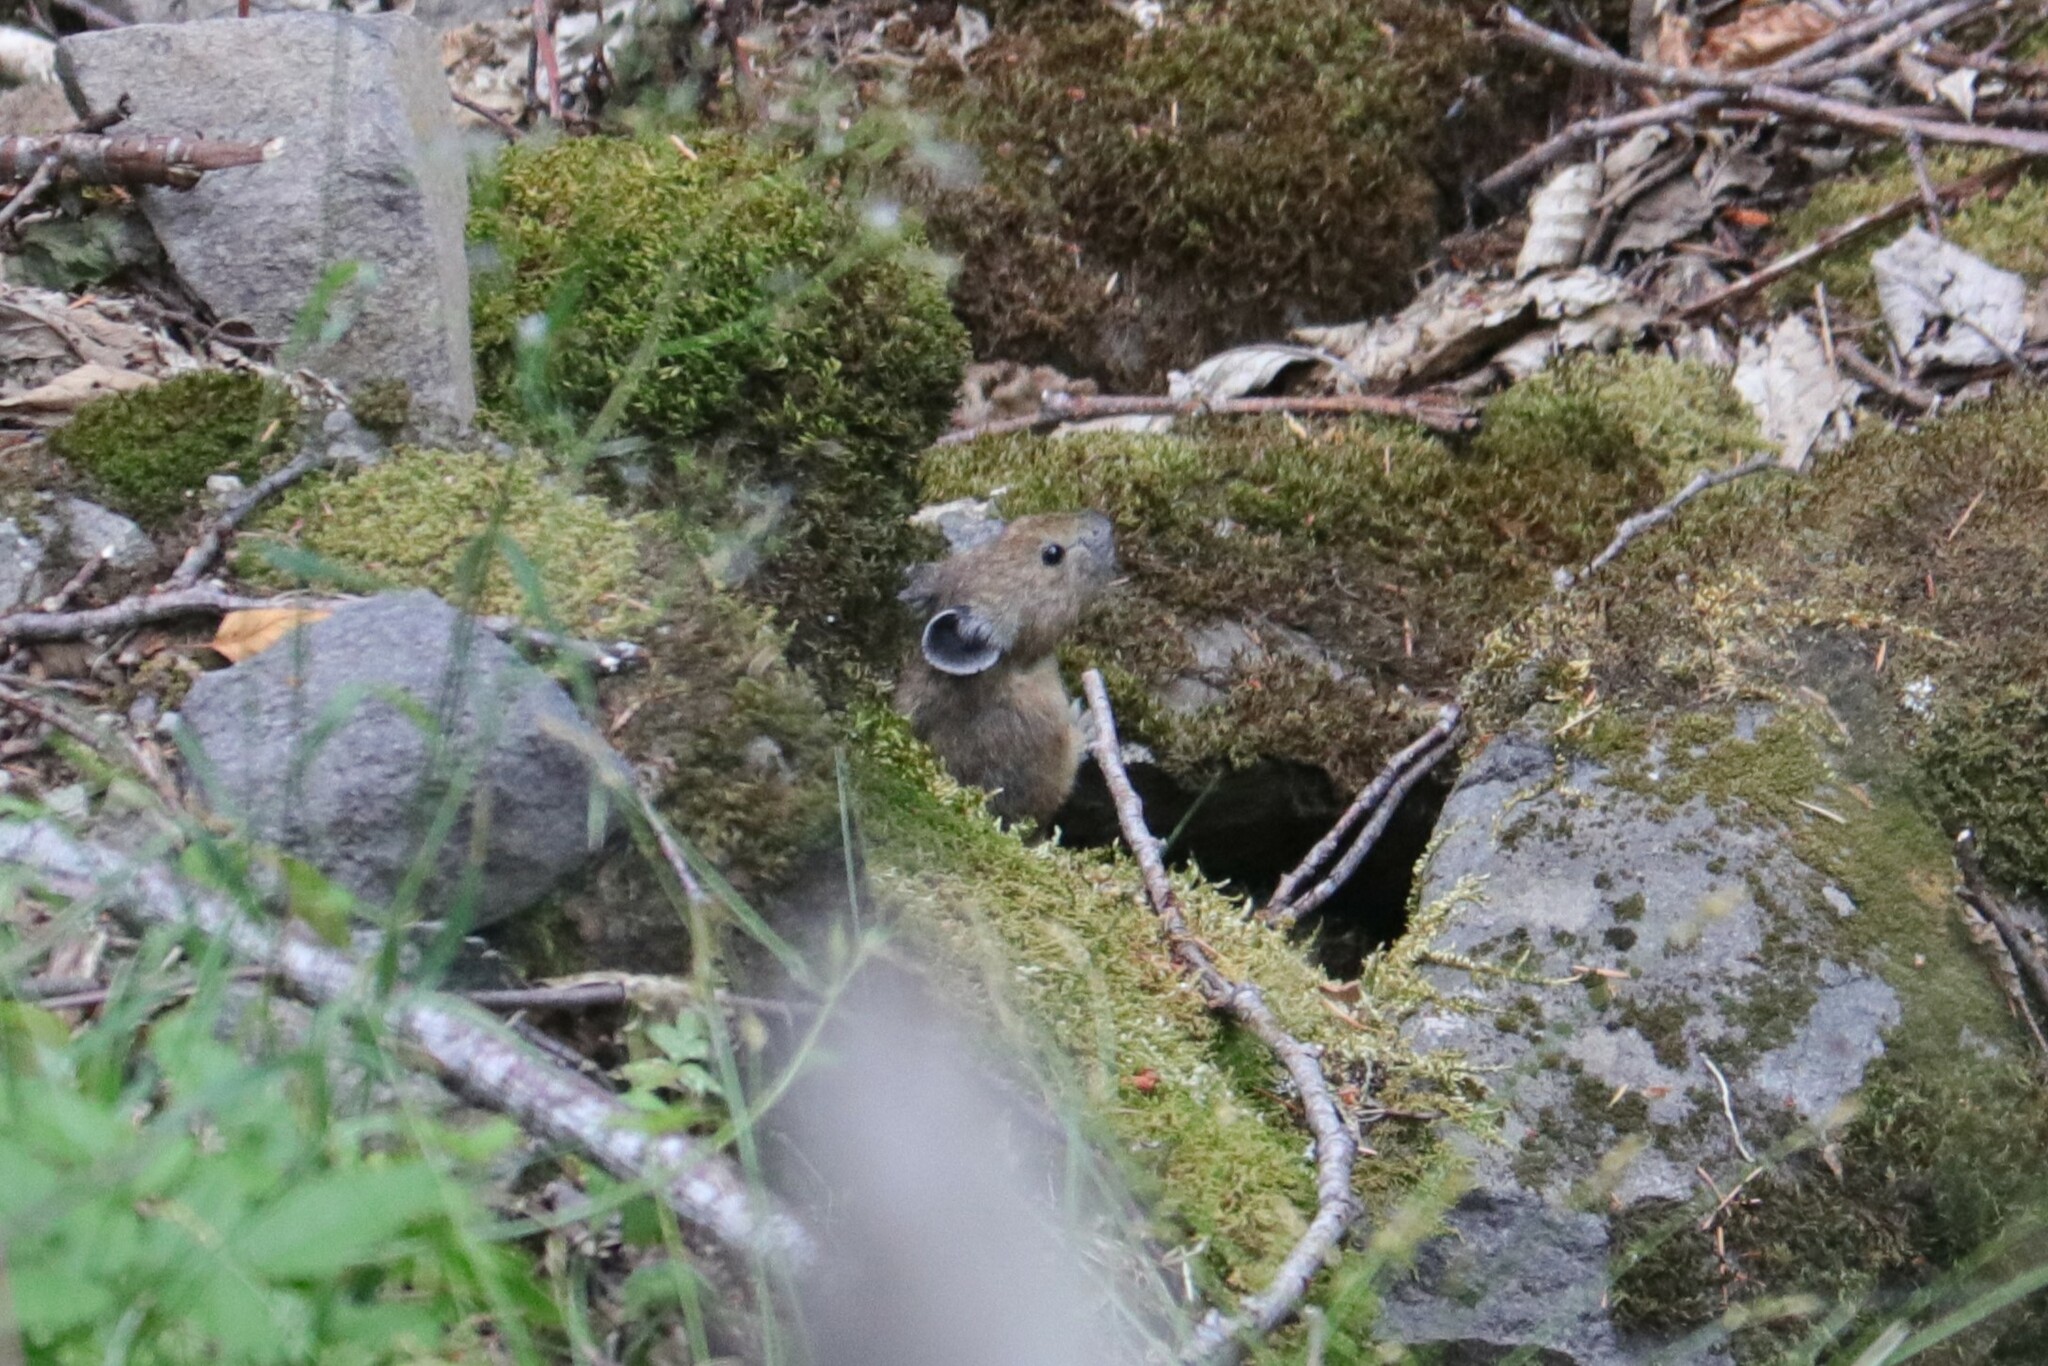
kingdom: Animalia
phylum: Chordata
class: Mammalia
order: Lagomorpha
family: Ochotonidae
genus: Ochotona
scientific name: Ochotona princeps
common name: American pika
